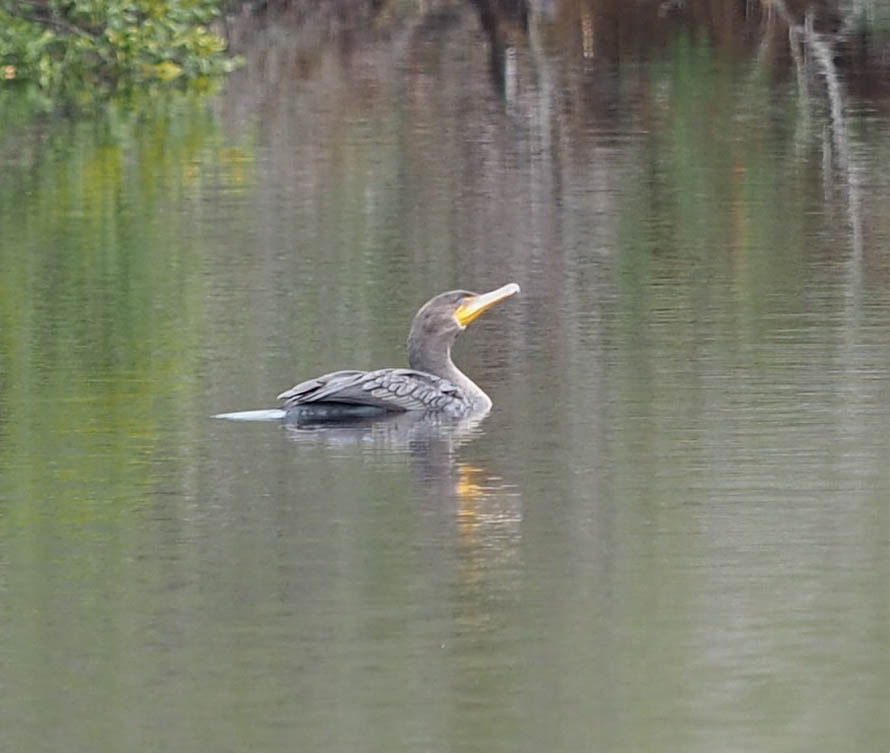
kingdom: Animalia
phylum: Chordata
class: Aves
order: Suliformes
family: Phalacrocoracidae
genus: Phalacrocorax
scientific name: Phalacrocorax auritus
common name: Double-crested cormorant
